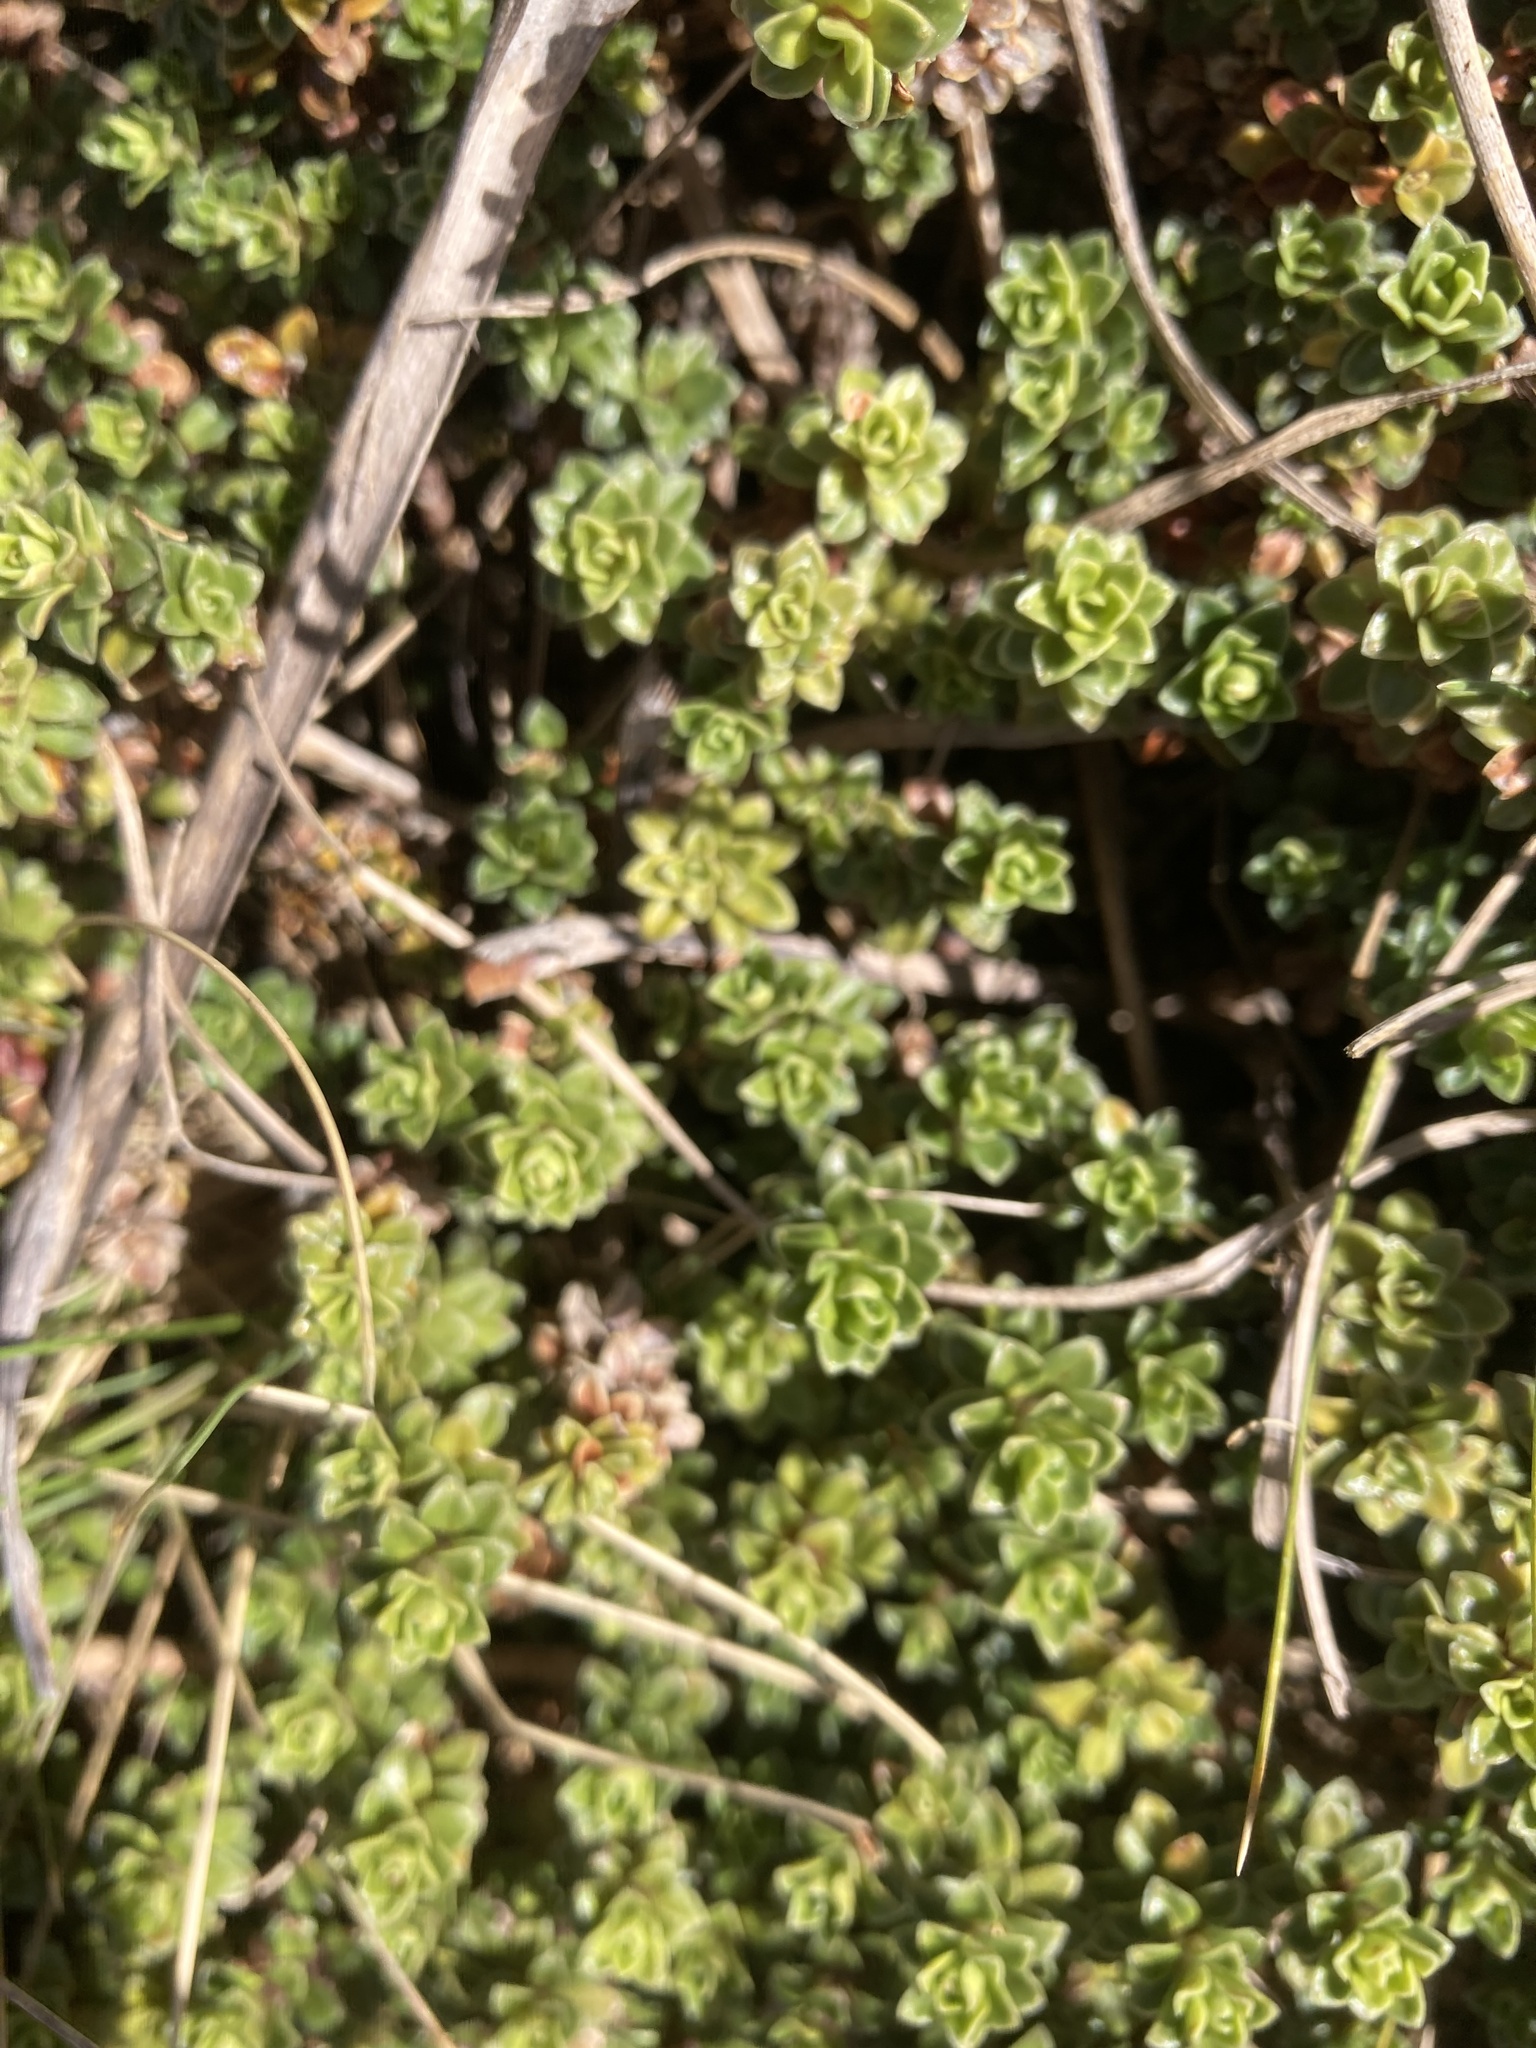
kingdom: Plantae
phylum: Tracheophyta
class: Magnoliopsida
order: Asterales
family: Stylidiaceae
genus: Forstera
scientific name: Forstera purpurata
